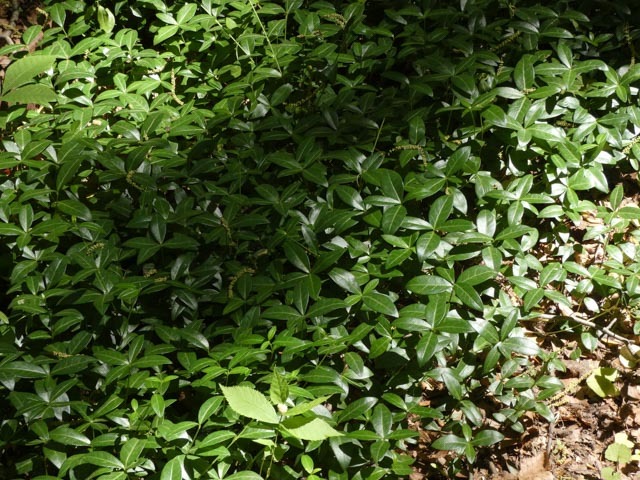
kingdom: Plantae
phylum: Tracheophyta
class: Magnoliopsida
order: Gentianales
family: Apocynaceae
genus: Vinca
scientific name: Vinca minor
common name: Lesser periwinkle
